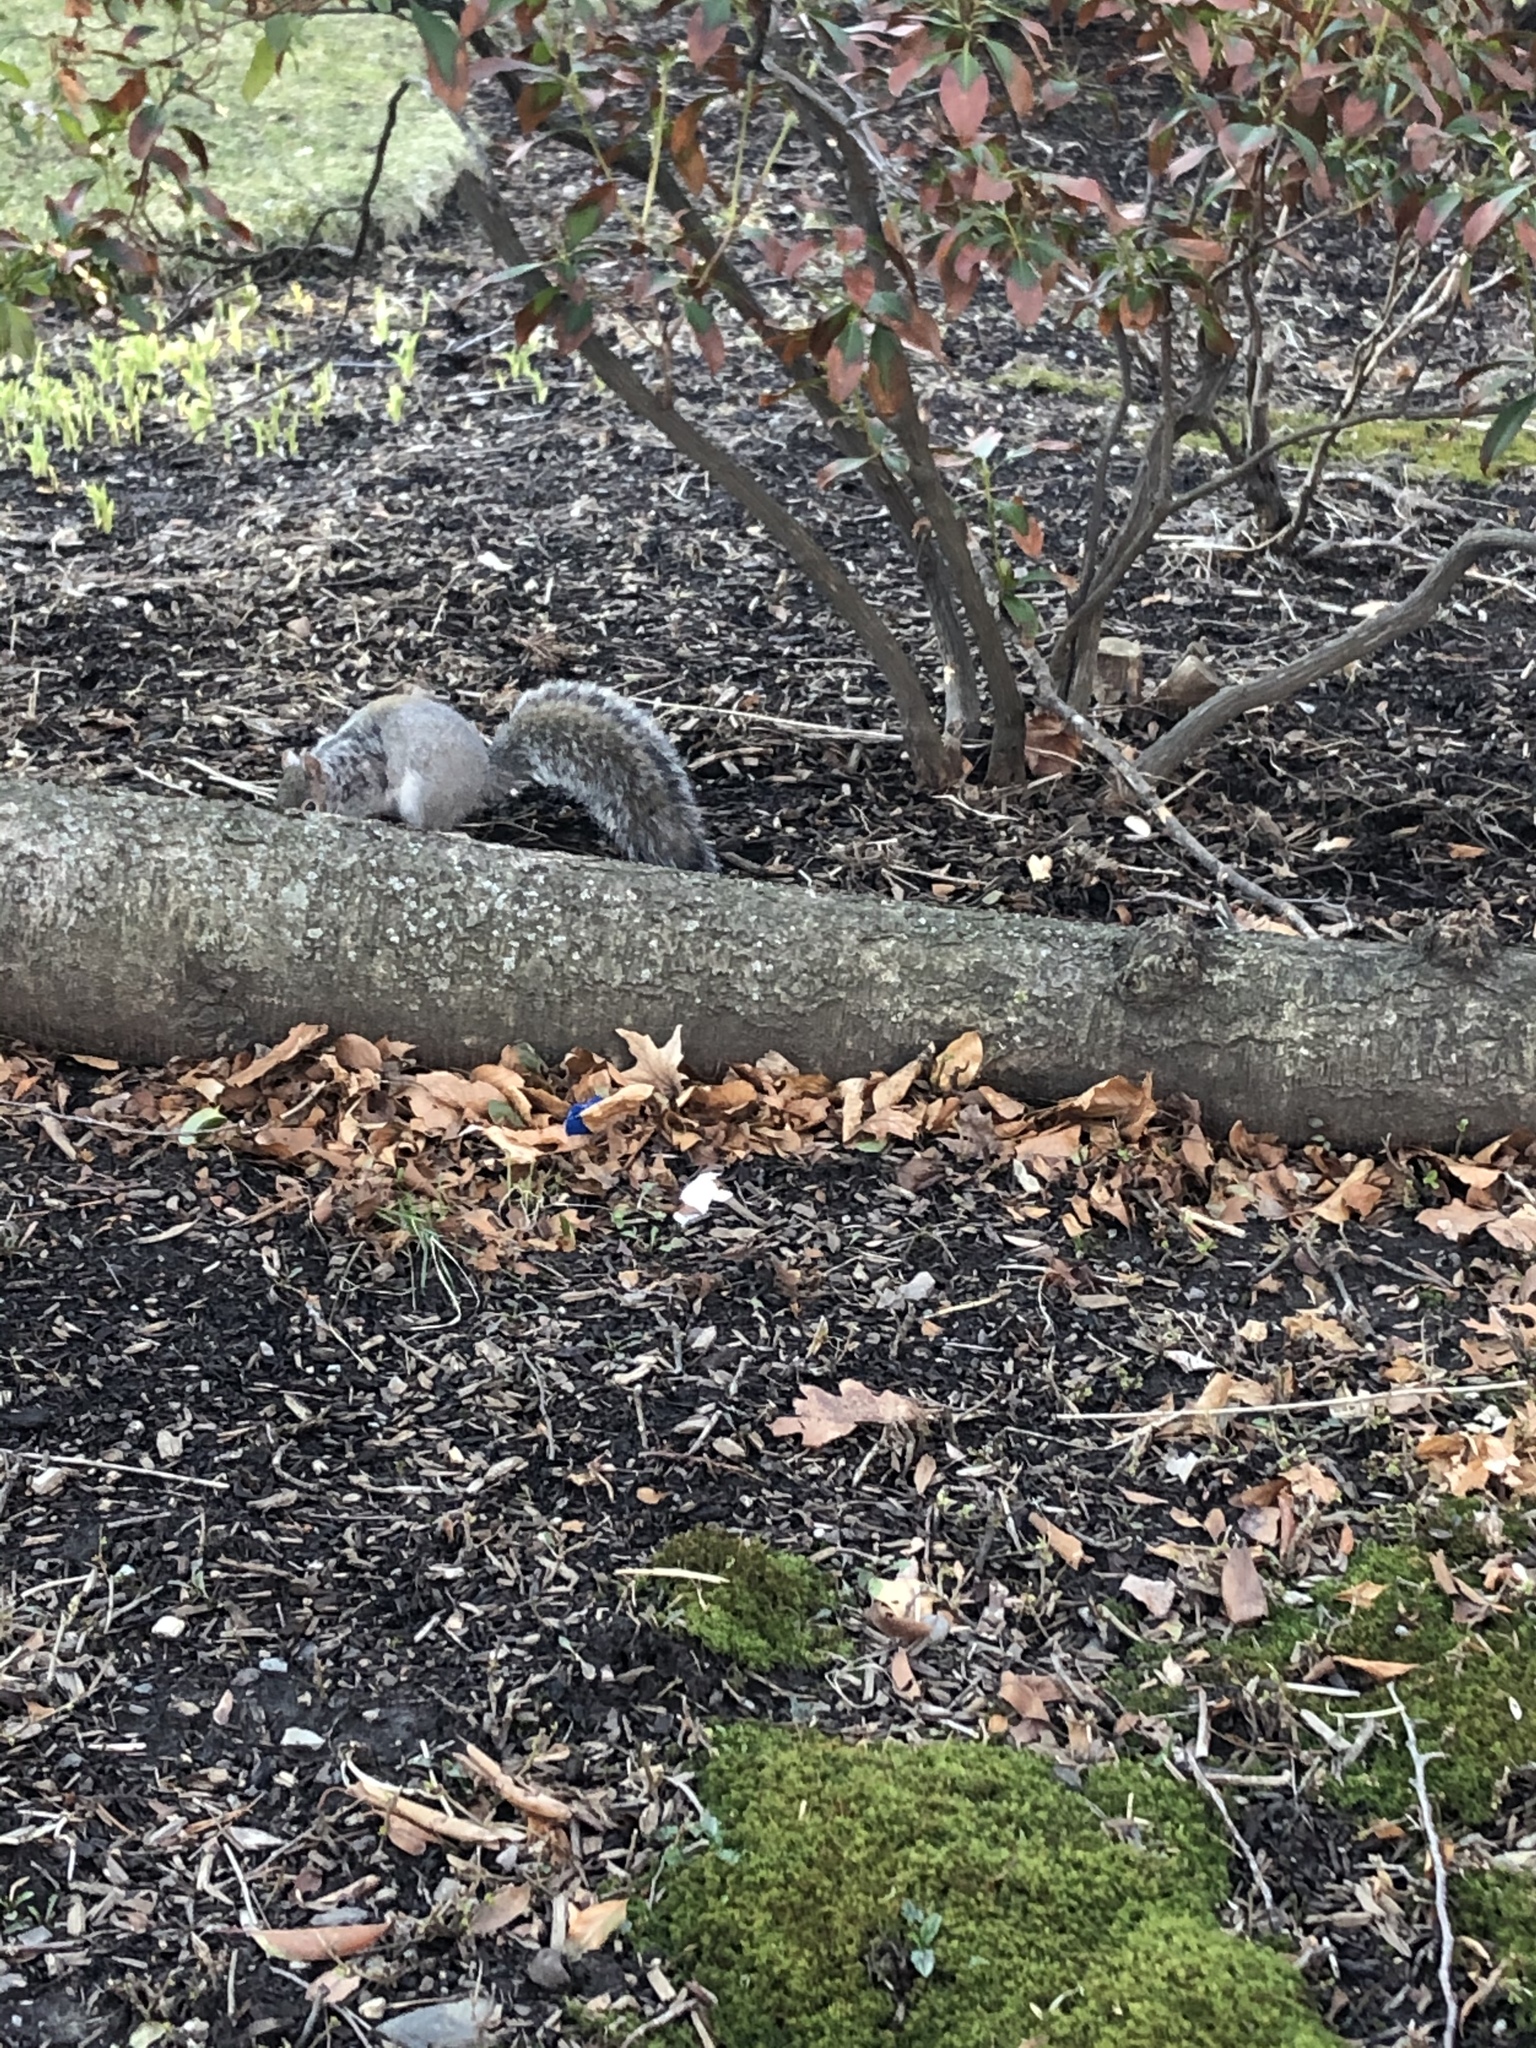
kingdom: Animalia
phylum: Chordata
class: Mammalia
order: Rodentia
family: Sciuridae
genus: Sciurus
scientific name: Sciurus carolinensis
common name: Eastern gray squirrel
